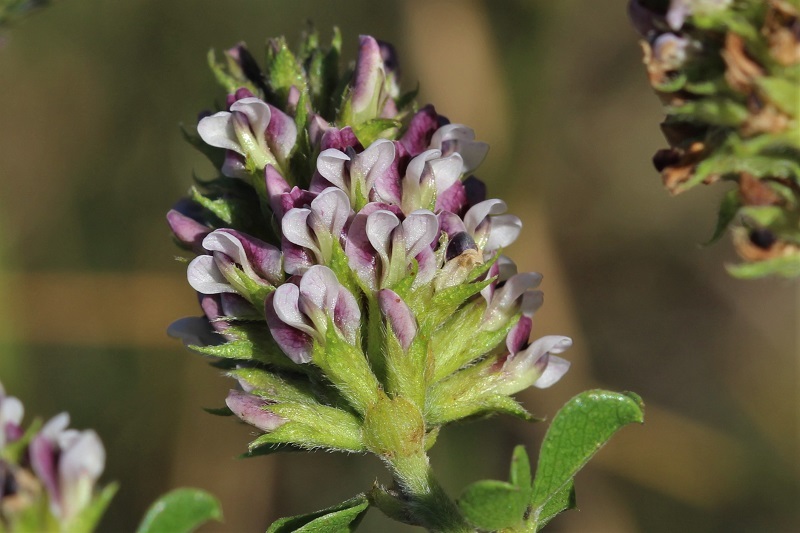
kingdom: Plantae
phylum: Tracheophyta
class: Magnoliopsida
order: Fabales
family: Fabaceae
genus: Psoralea
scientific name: Psoralea stachyera
